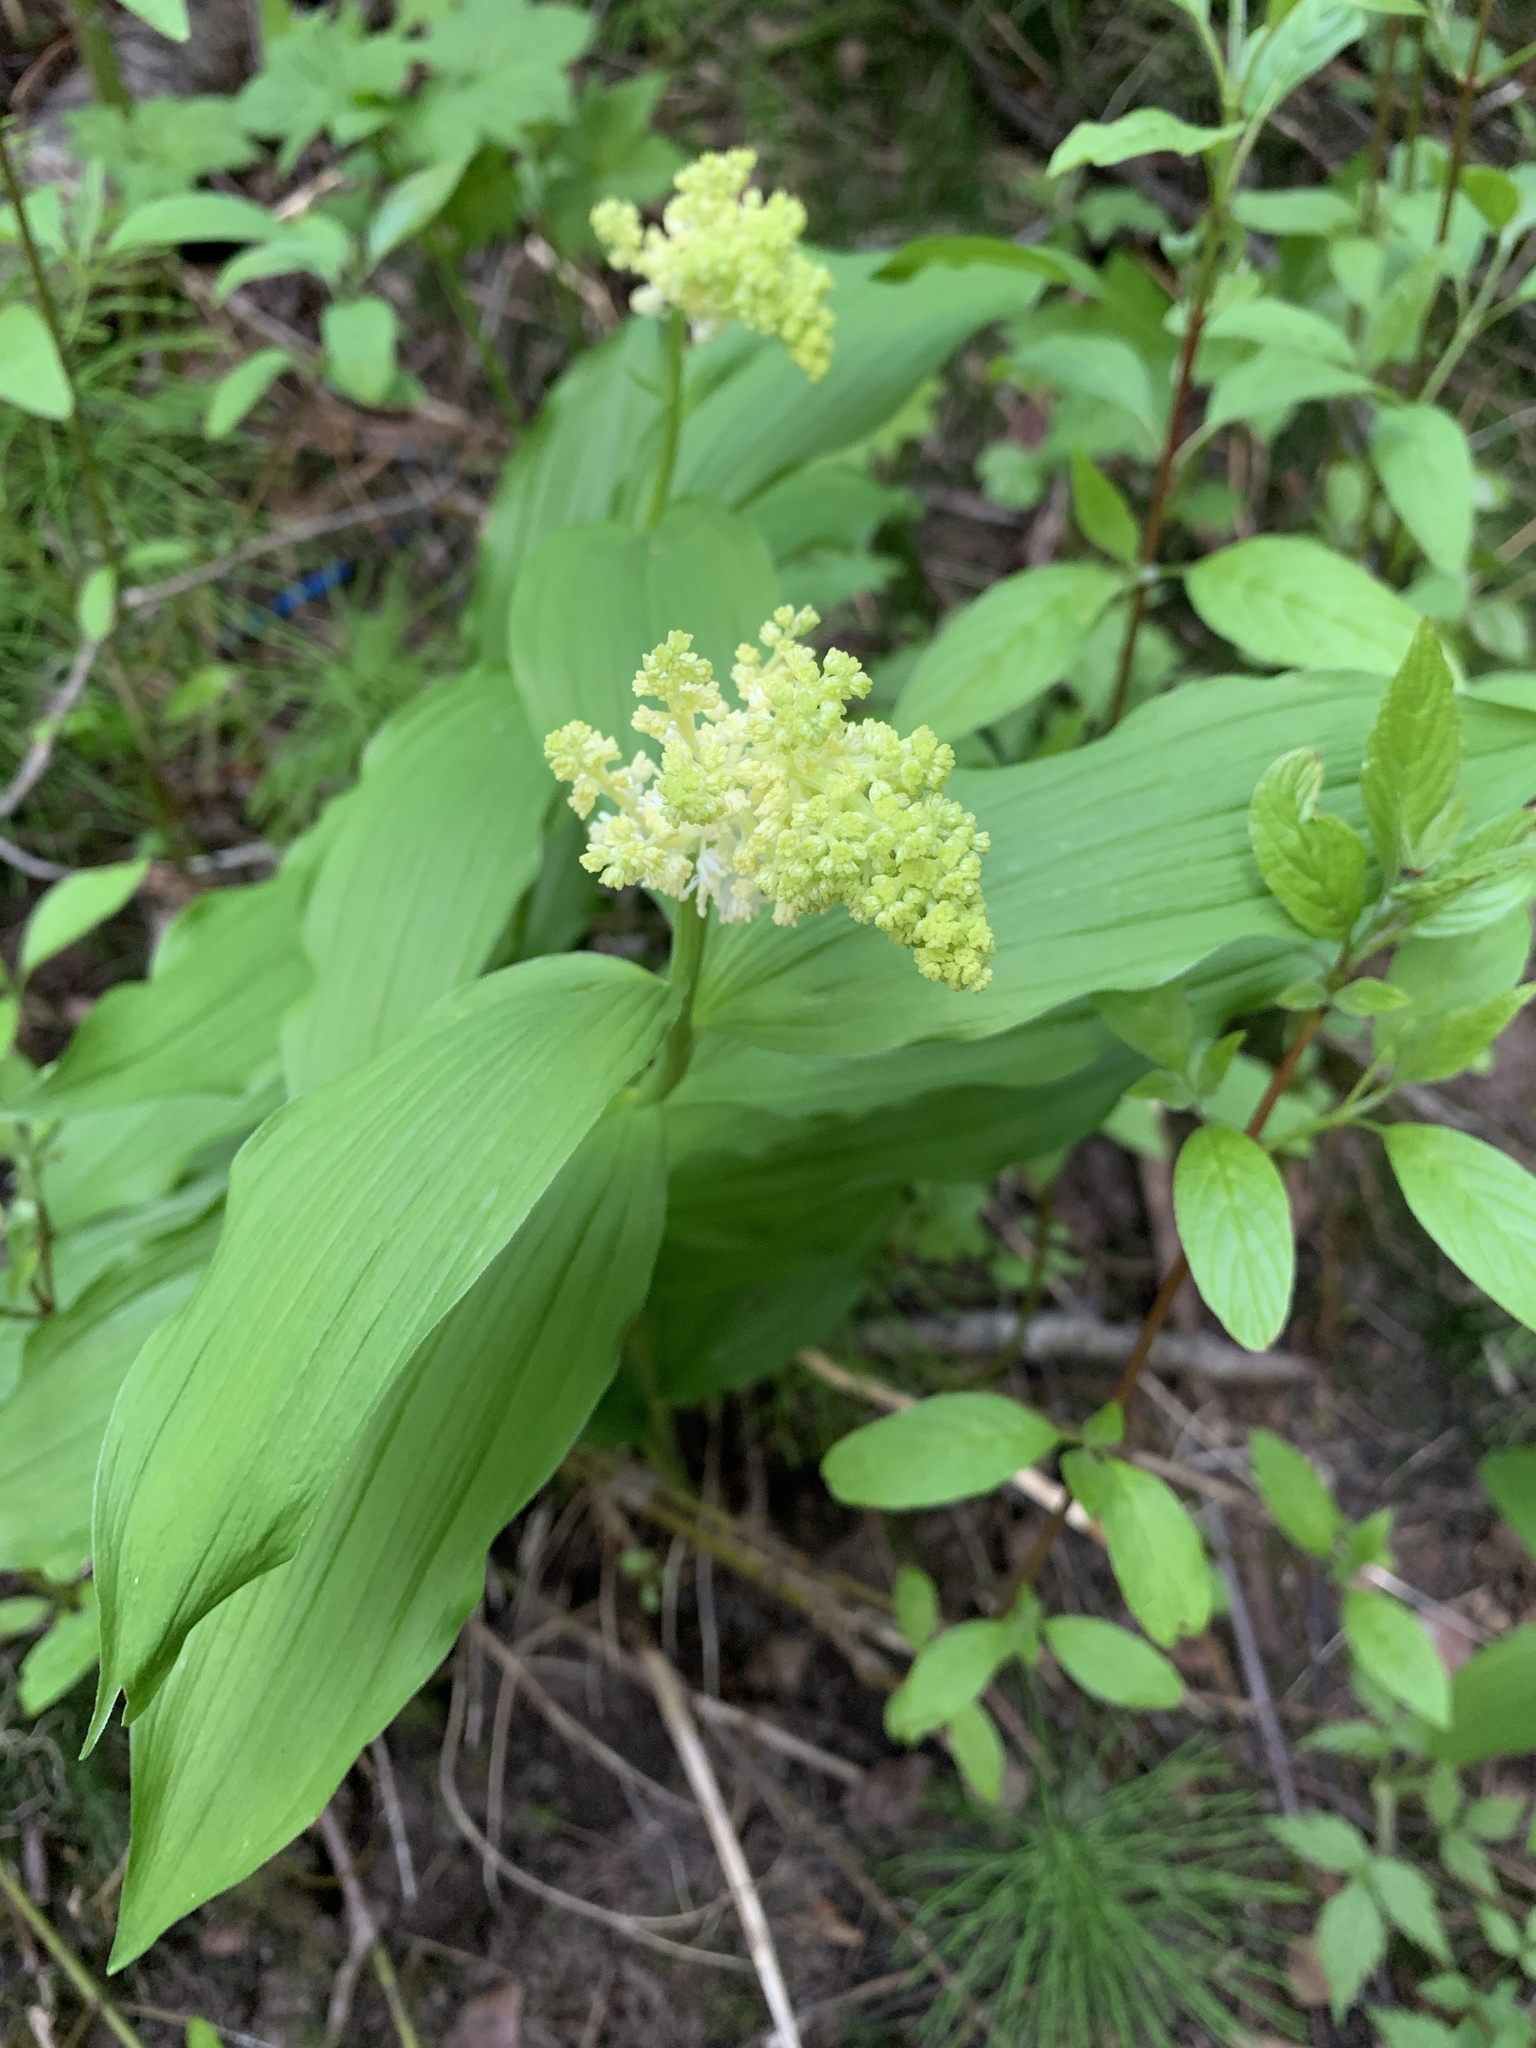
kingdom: Plantae
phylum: Tracheophyta
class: Liliopsida
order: Asparagales
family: Asparagaceae
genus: Maianthemum
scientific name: Maianthemum racemosum
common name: False spikenard
